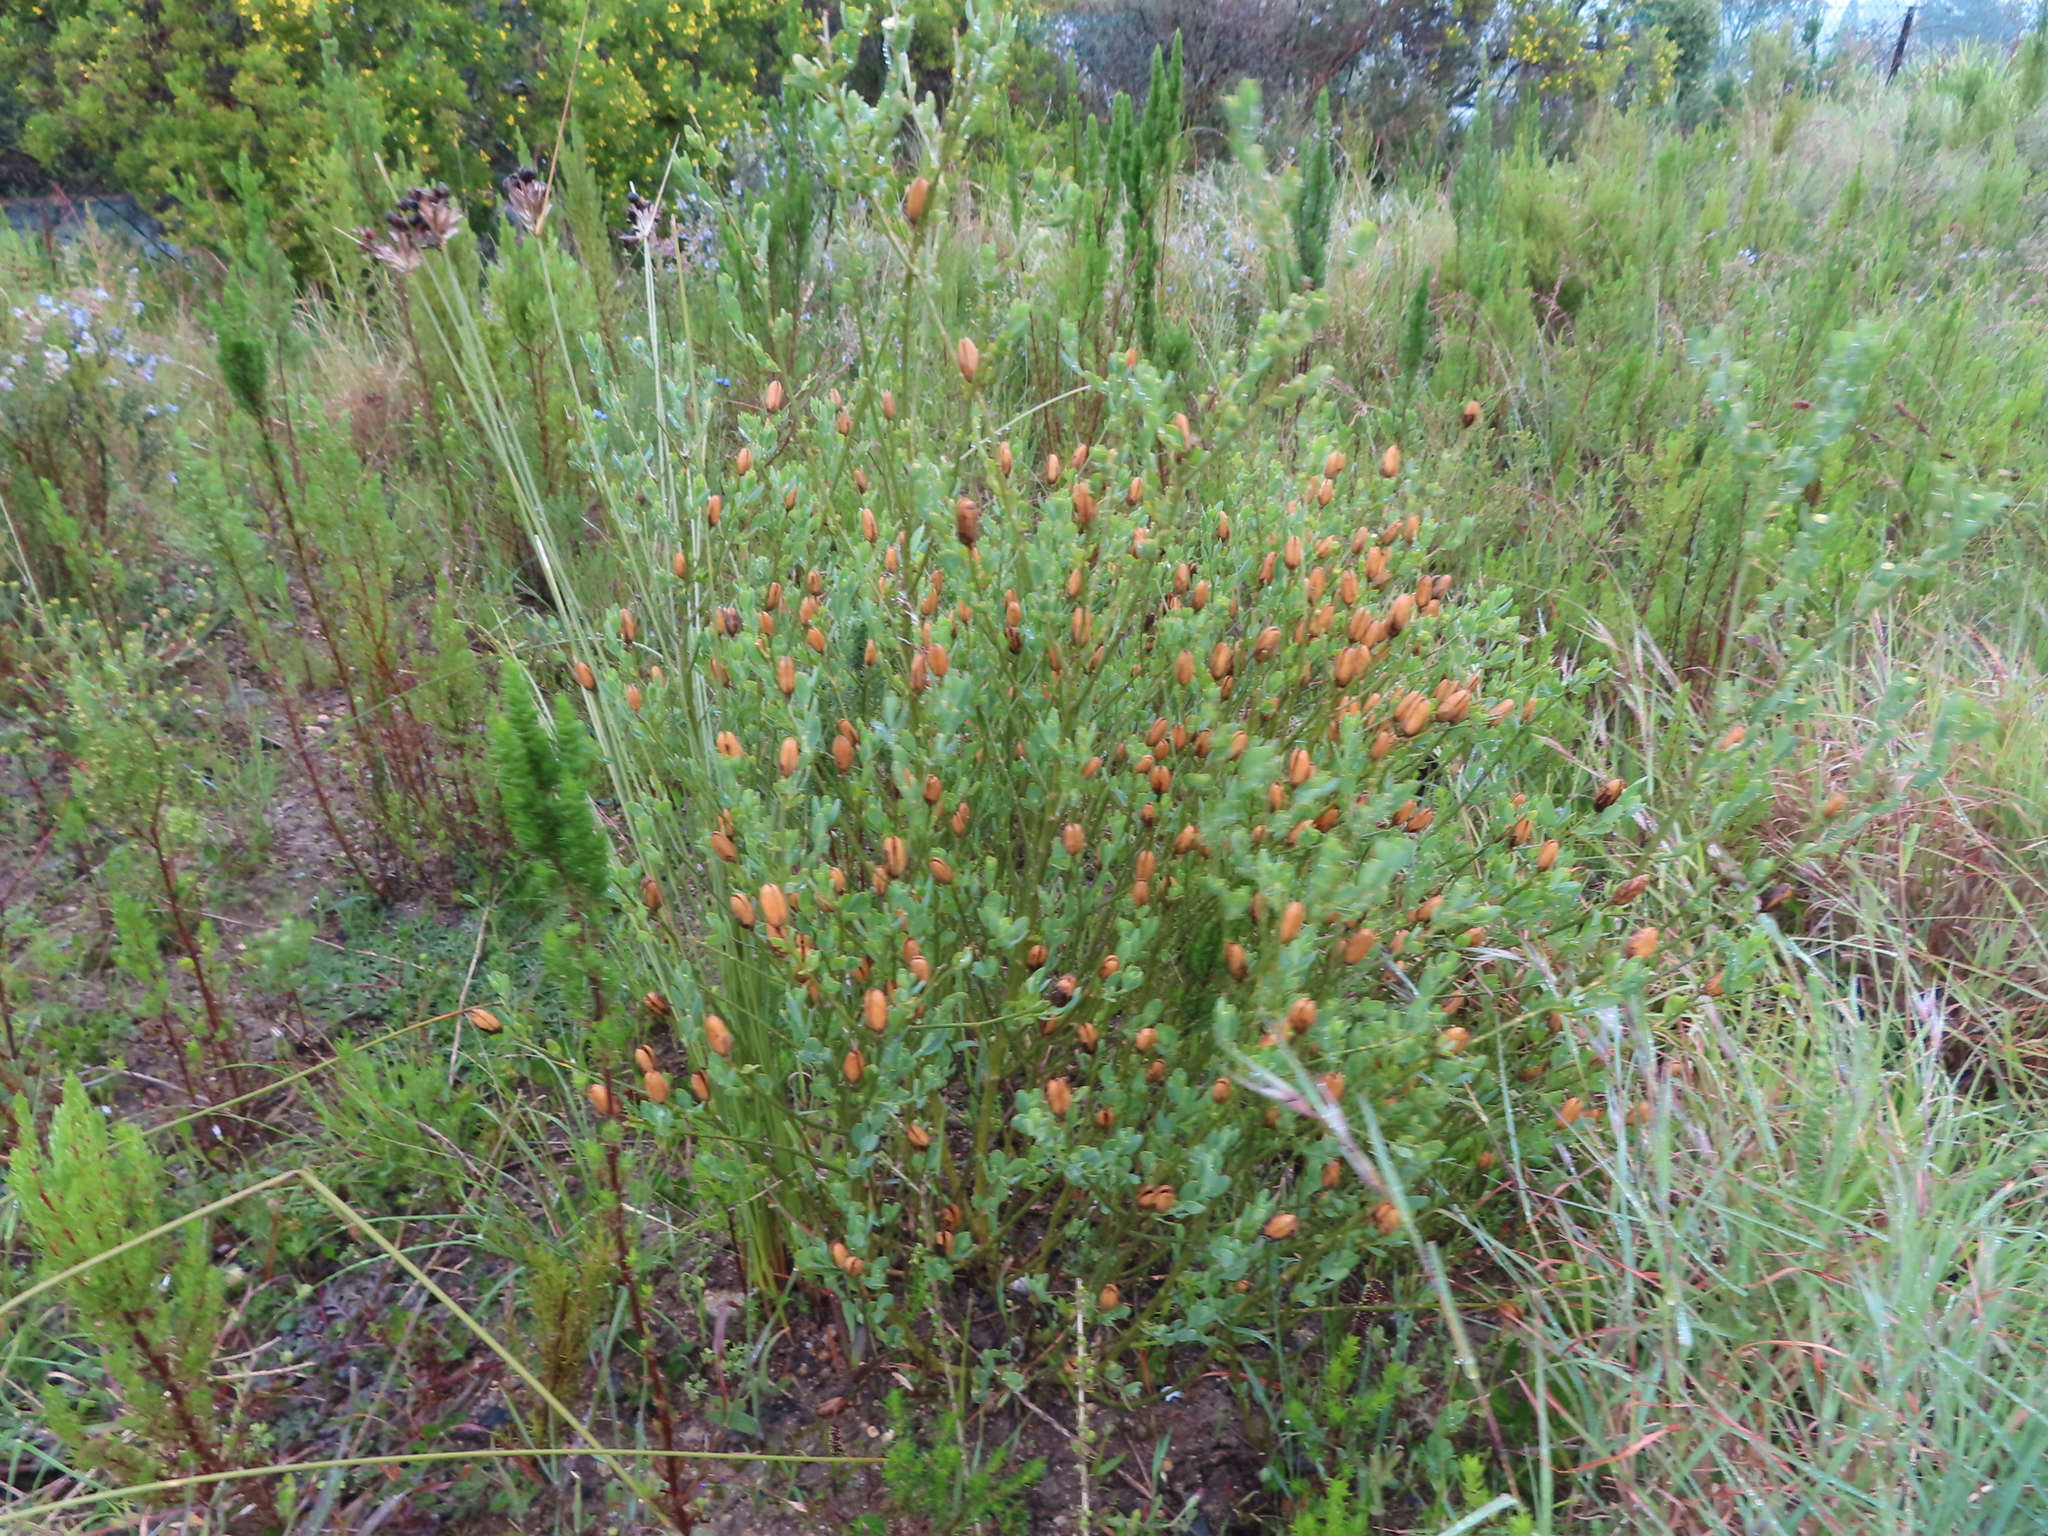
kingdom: Plantae
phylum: Tracheophyta
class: Magnoliopsida
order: Solanales
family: Montiniaceae
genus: Montinia
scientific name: Montinia caryophyllacea
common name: Wild clove-bush
